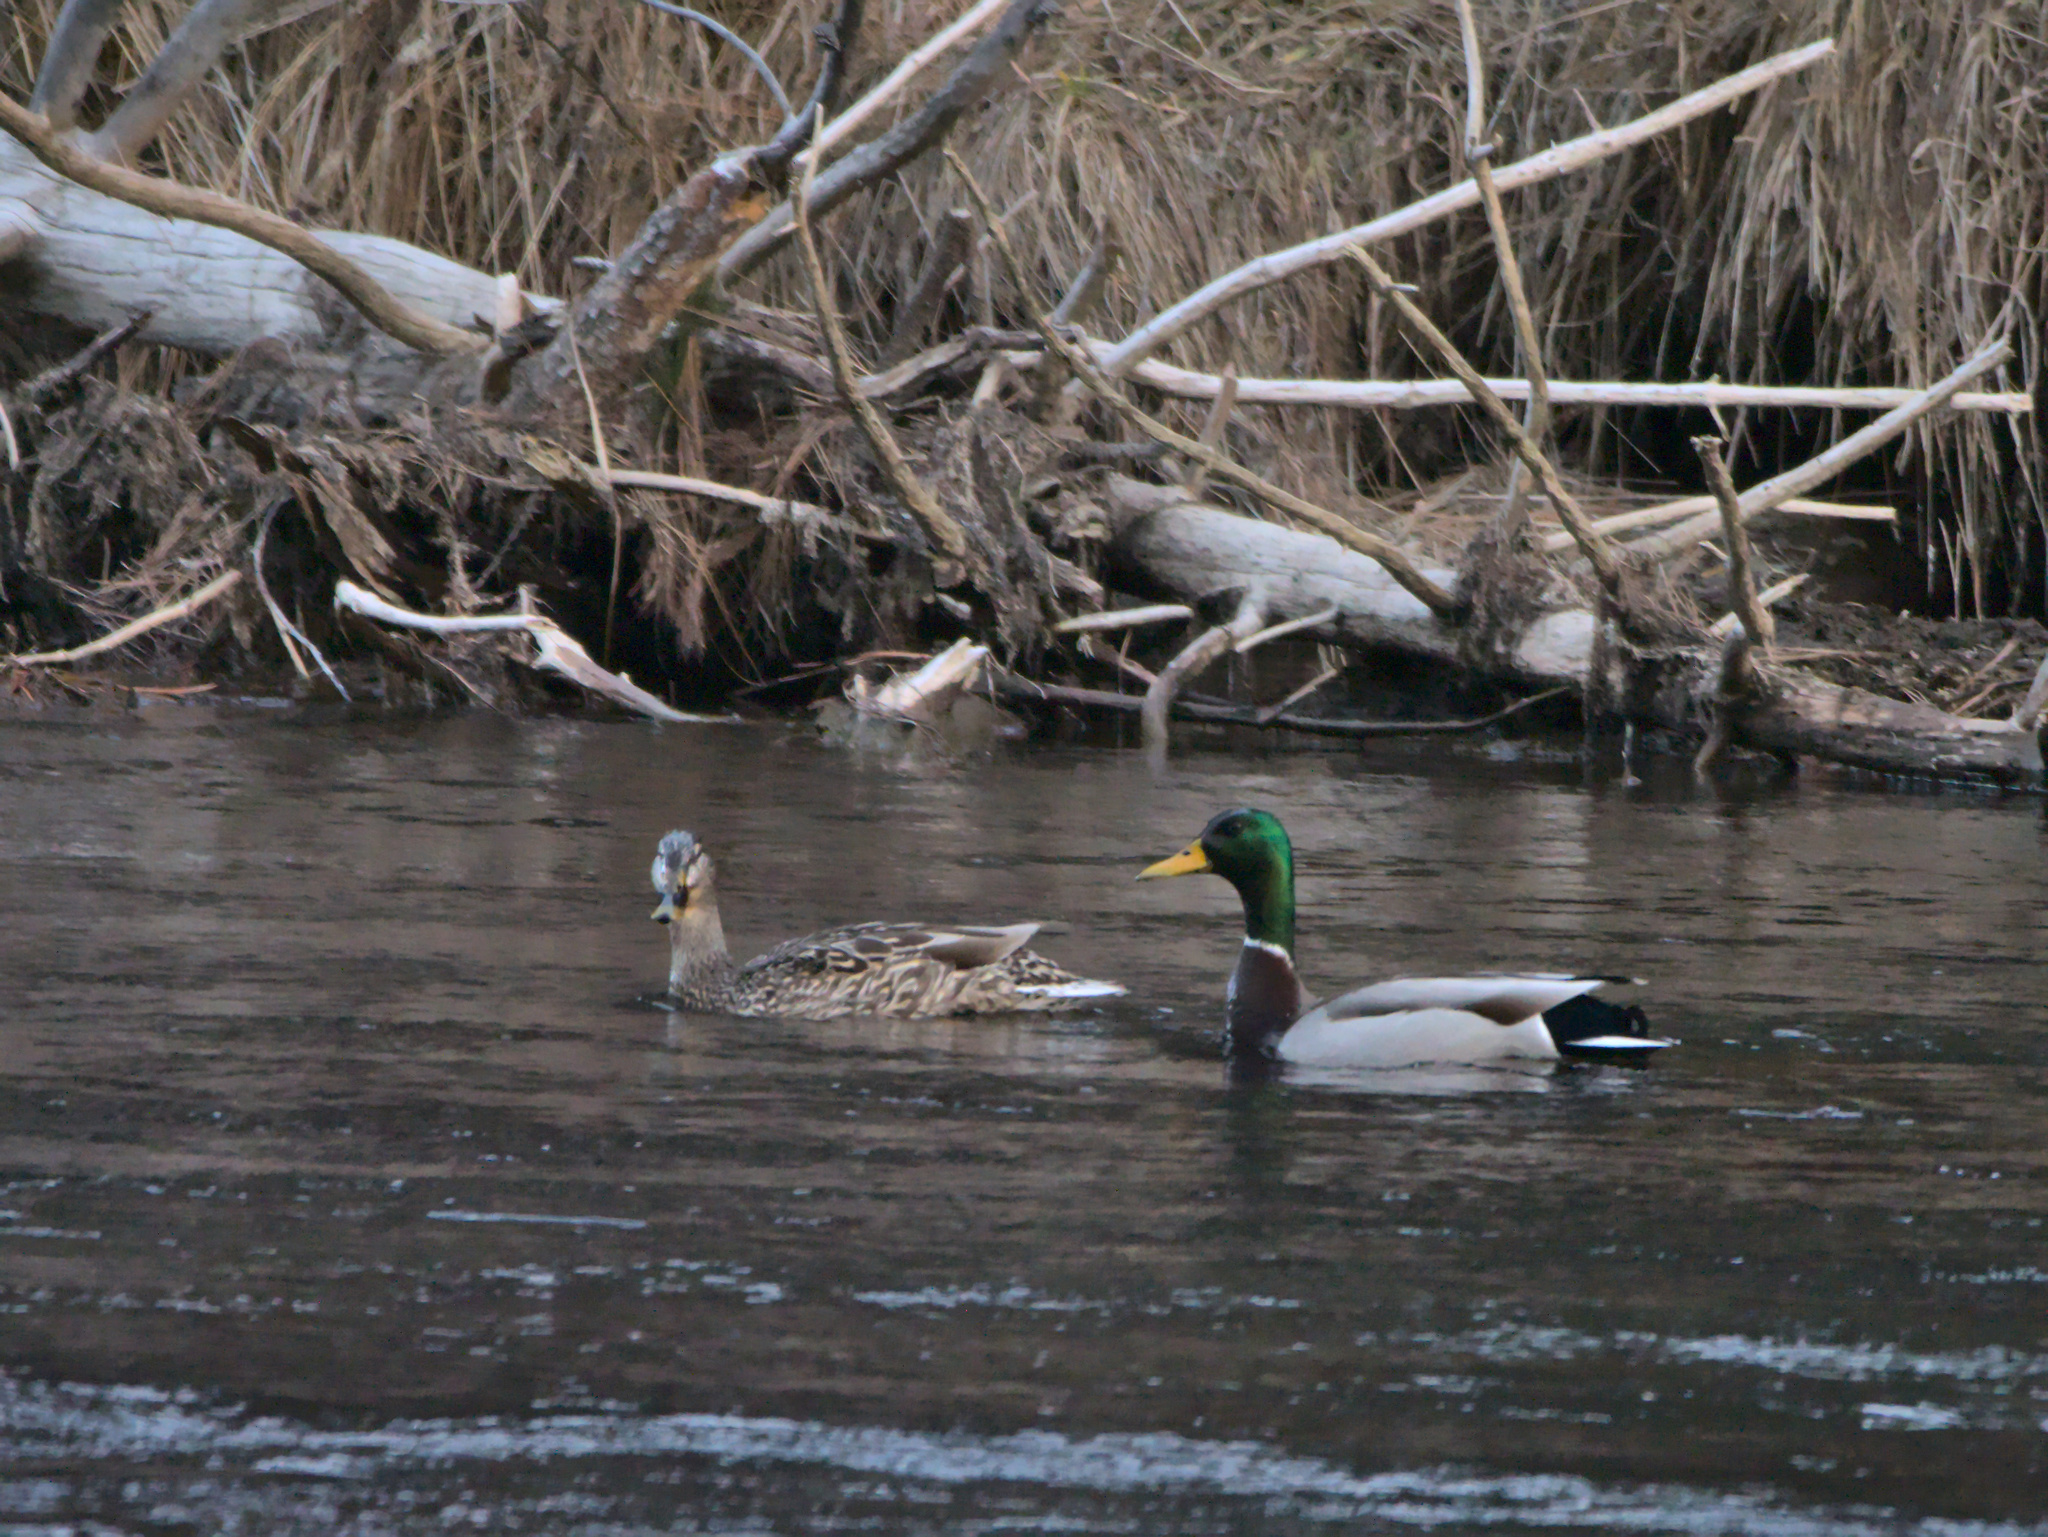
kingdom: Animalia
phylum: Chordata
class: Aves
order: Anseriformes
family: Anatidae
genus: Anas
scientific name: Anas platyrhynchos
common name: Mallard
